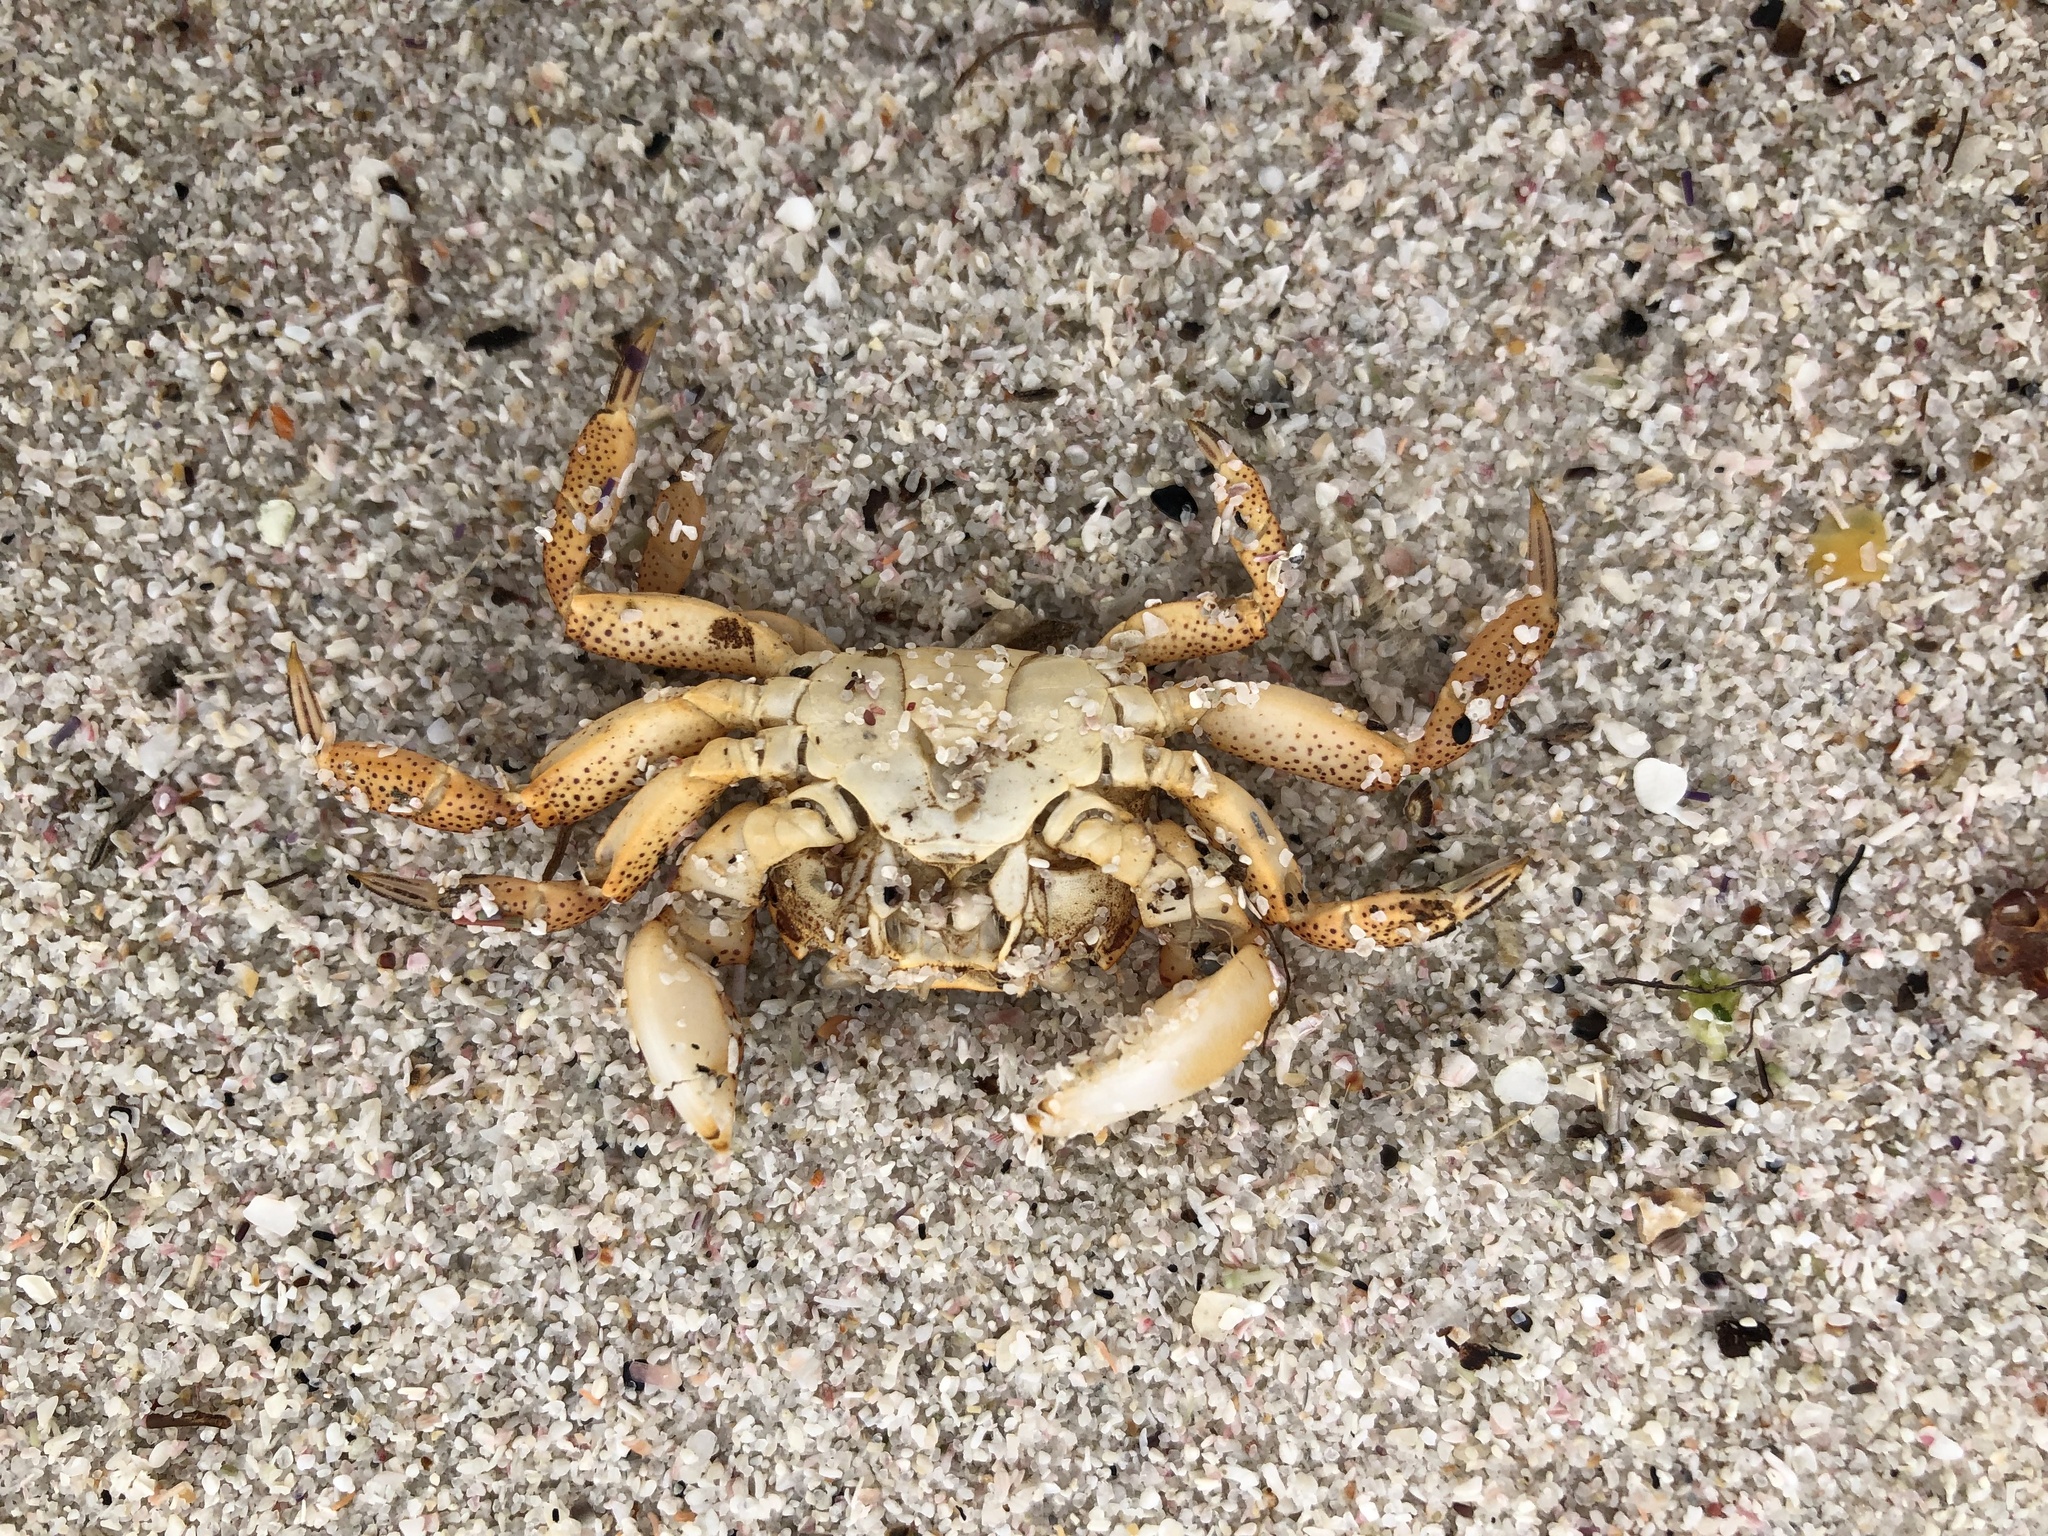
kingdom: Animalia
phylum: Arthropoda
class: Malacostraca
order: Decapoda
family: Varunidae
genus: Cyclograpsus
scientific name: Cyclograpsus punctatus
